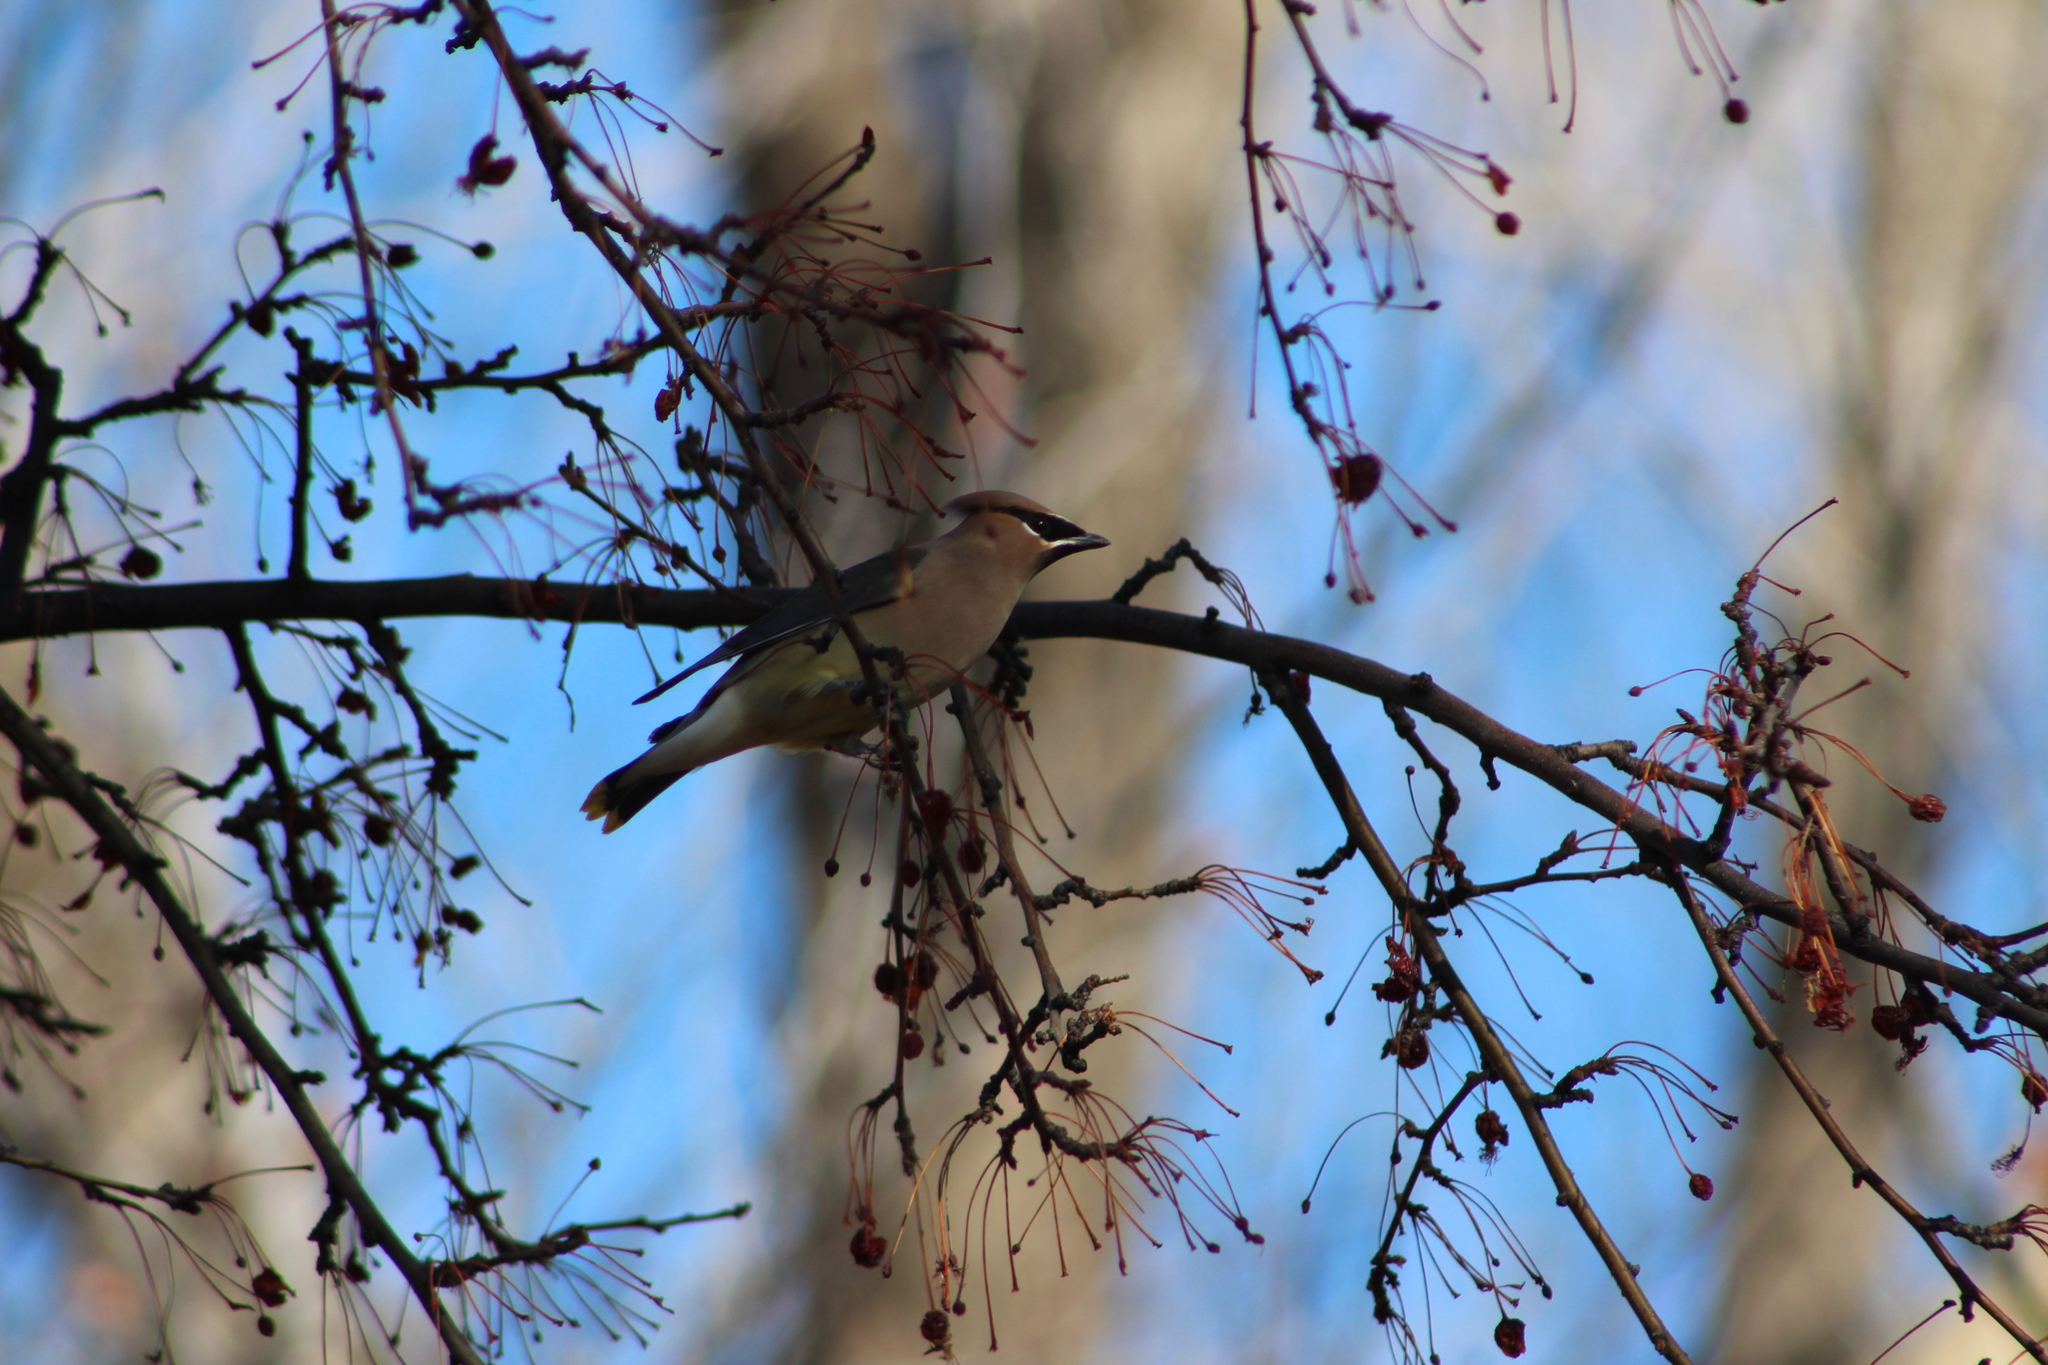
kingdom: Animalia
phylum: Chordata
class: Aves
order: Passeriformes
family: Bombycillidae
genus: Bombycilla
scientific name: Bombycilla cedrorum
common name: Cedar waxwing
